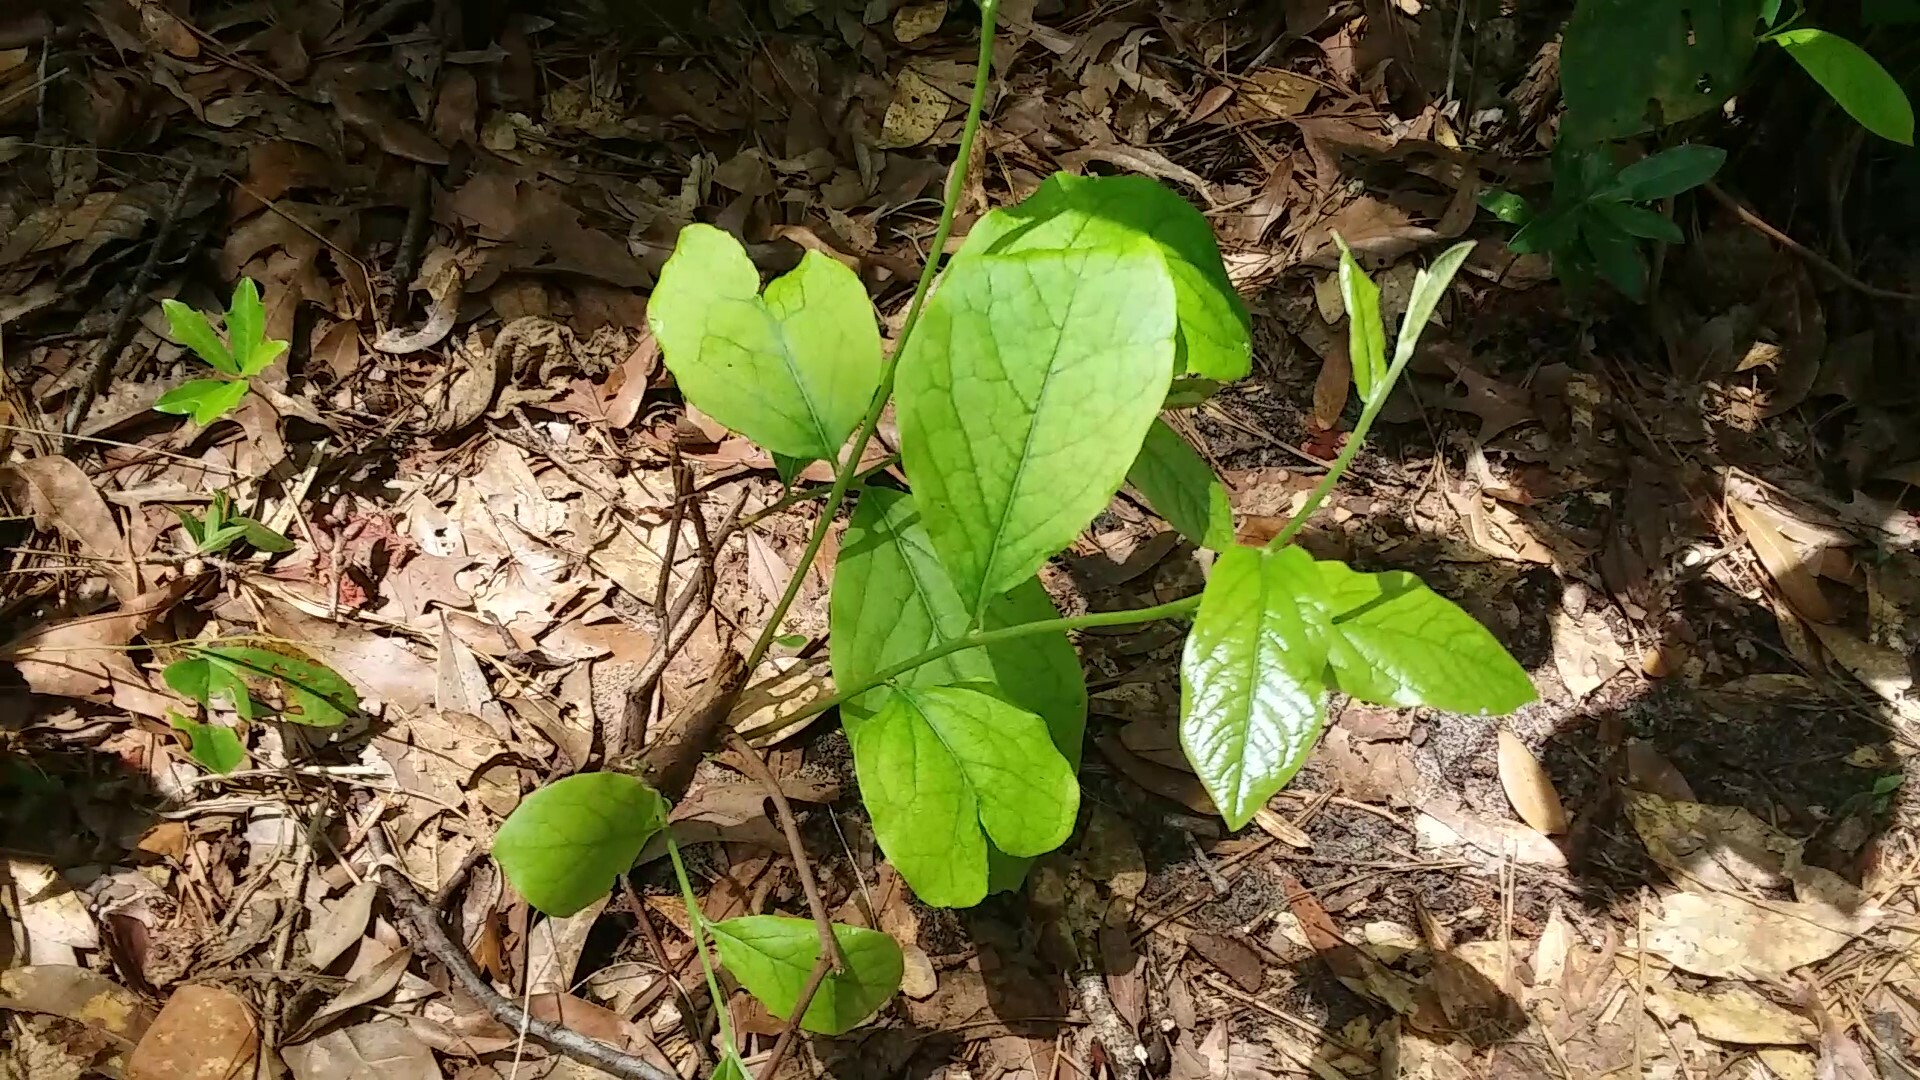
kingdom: Plantae
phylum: Tracheophyta
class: Magnoliopsida
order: Magnoliales
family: Annonaceae
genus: Asimina
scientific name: Asimina parviflora
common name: Dwarf pawpaw
